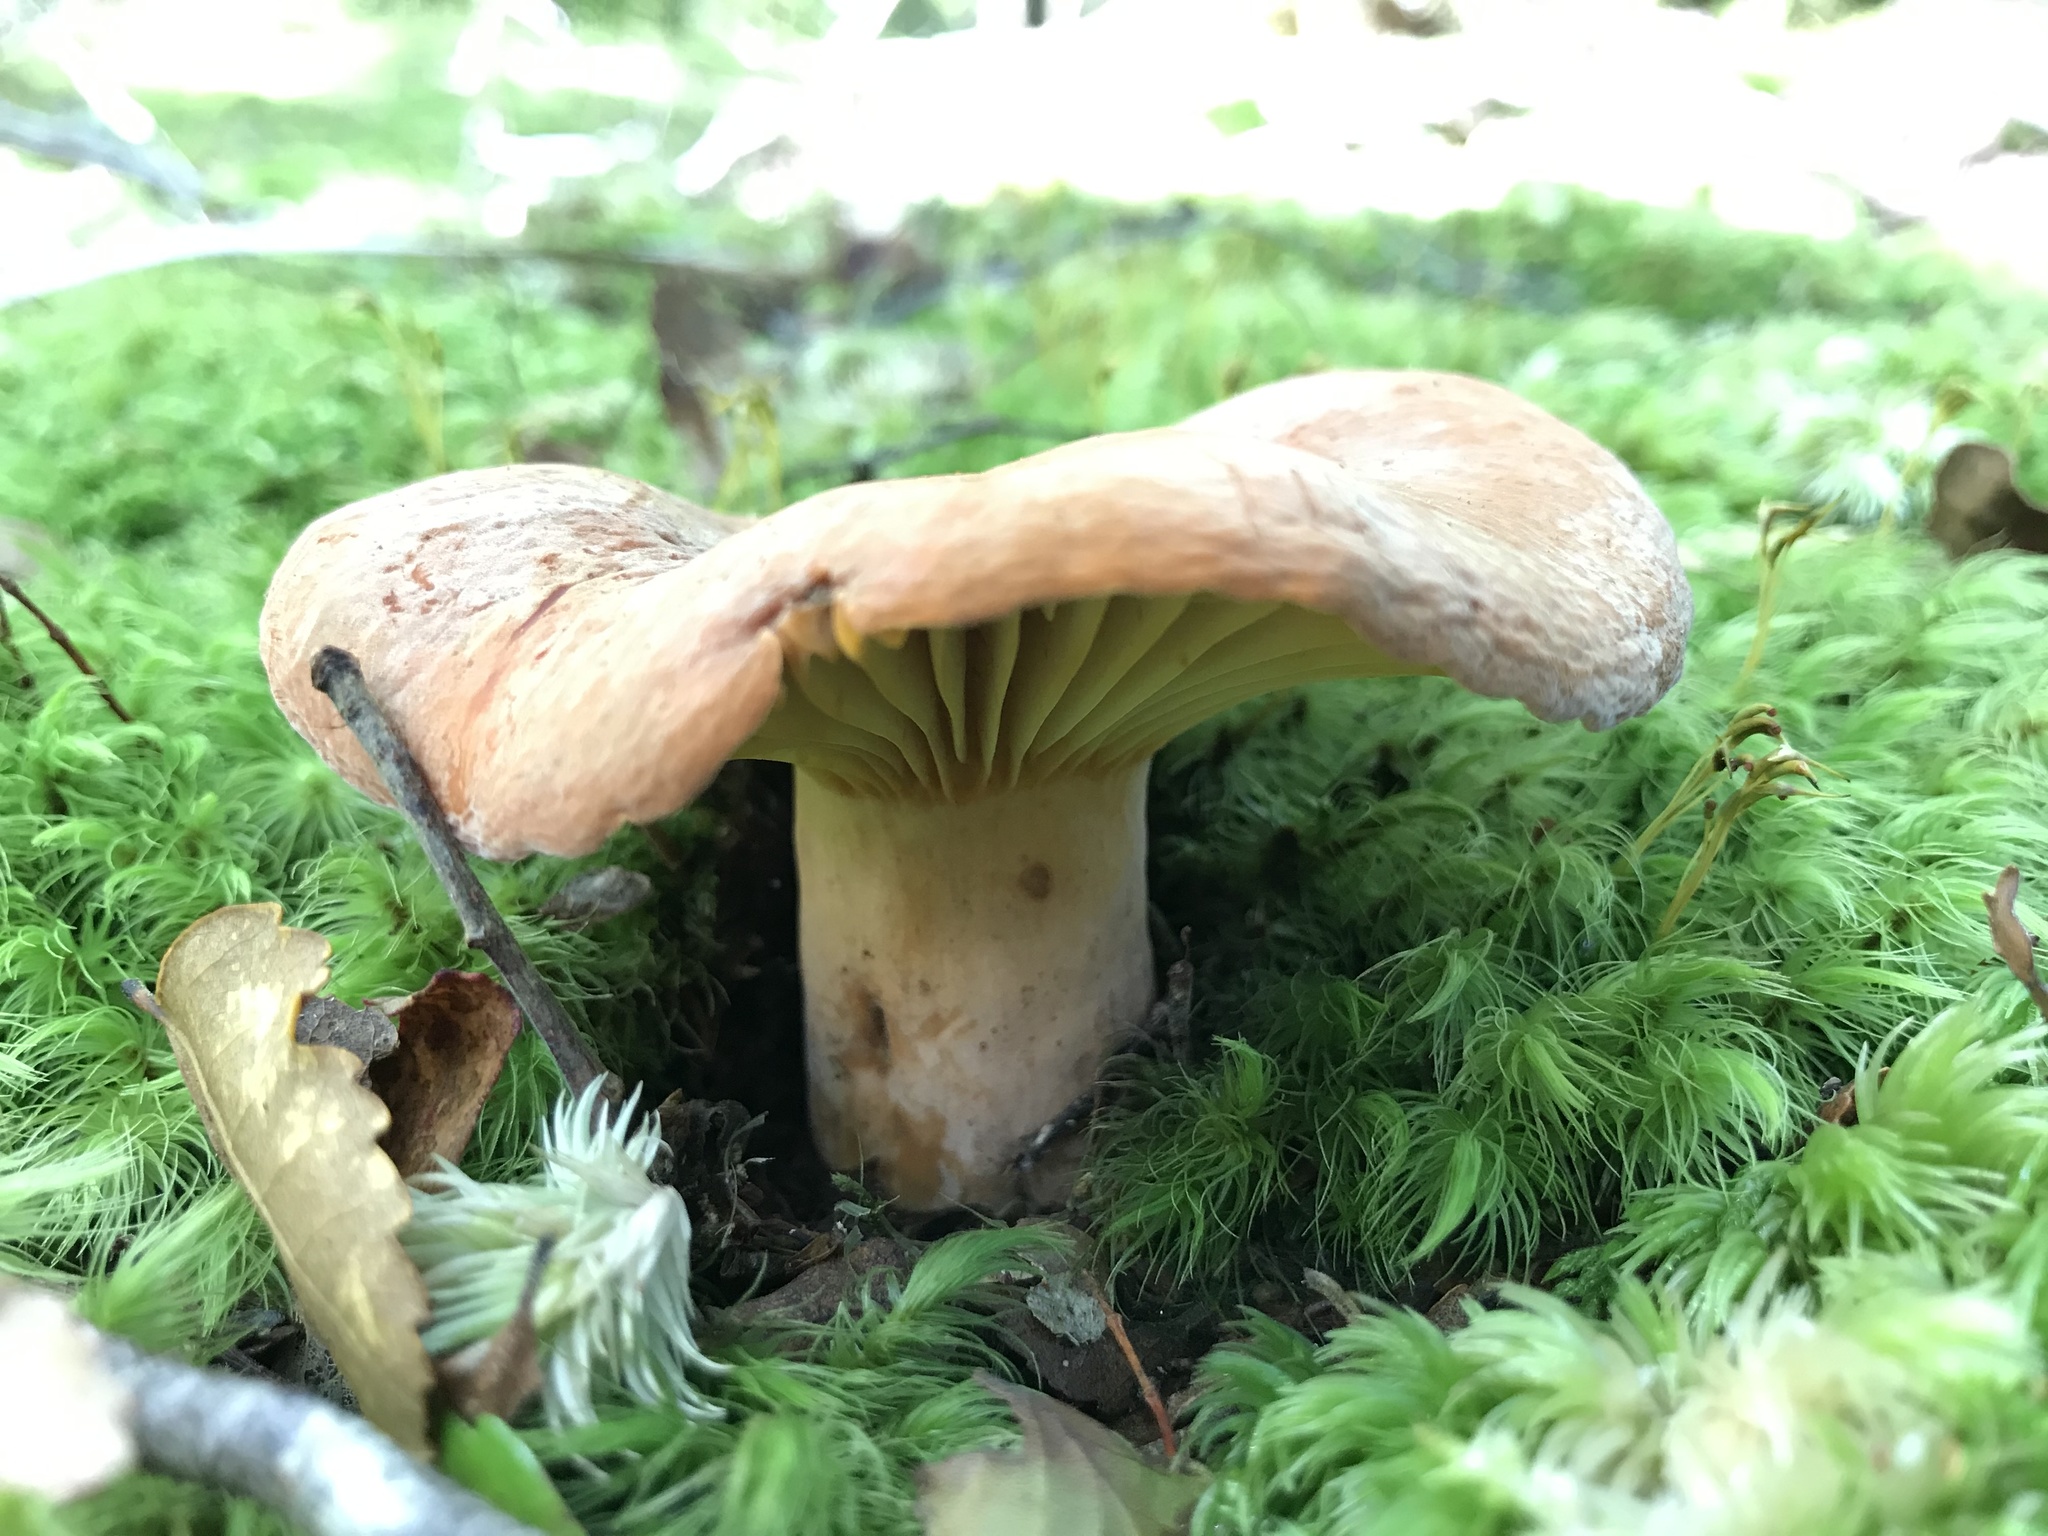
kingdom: Fungi
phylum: Basidiomycota
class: Agaricomycetes
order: Russulales
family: Russulaceae
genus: Lactifluus
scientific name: Lactifluus aurantioruber
